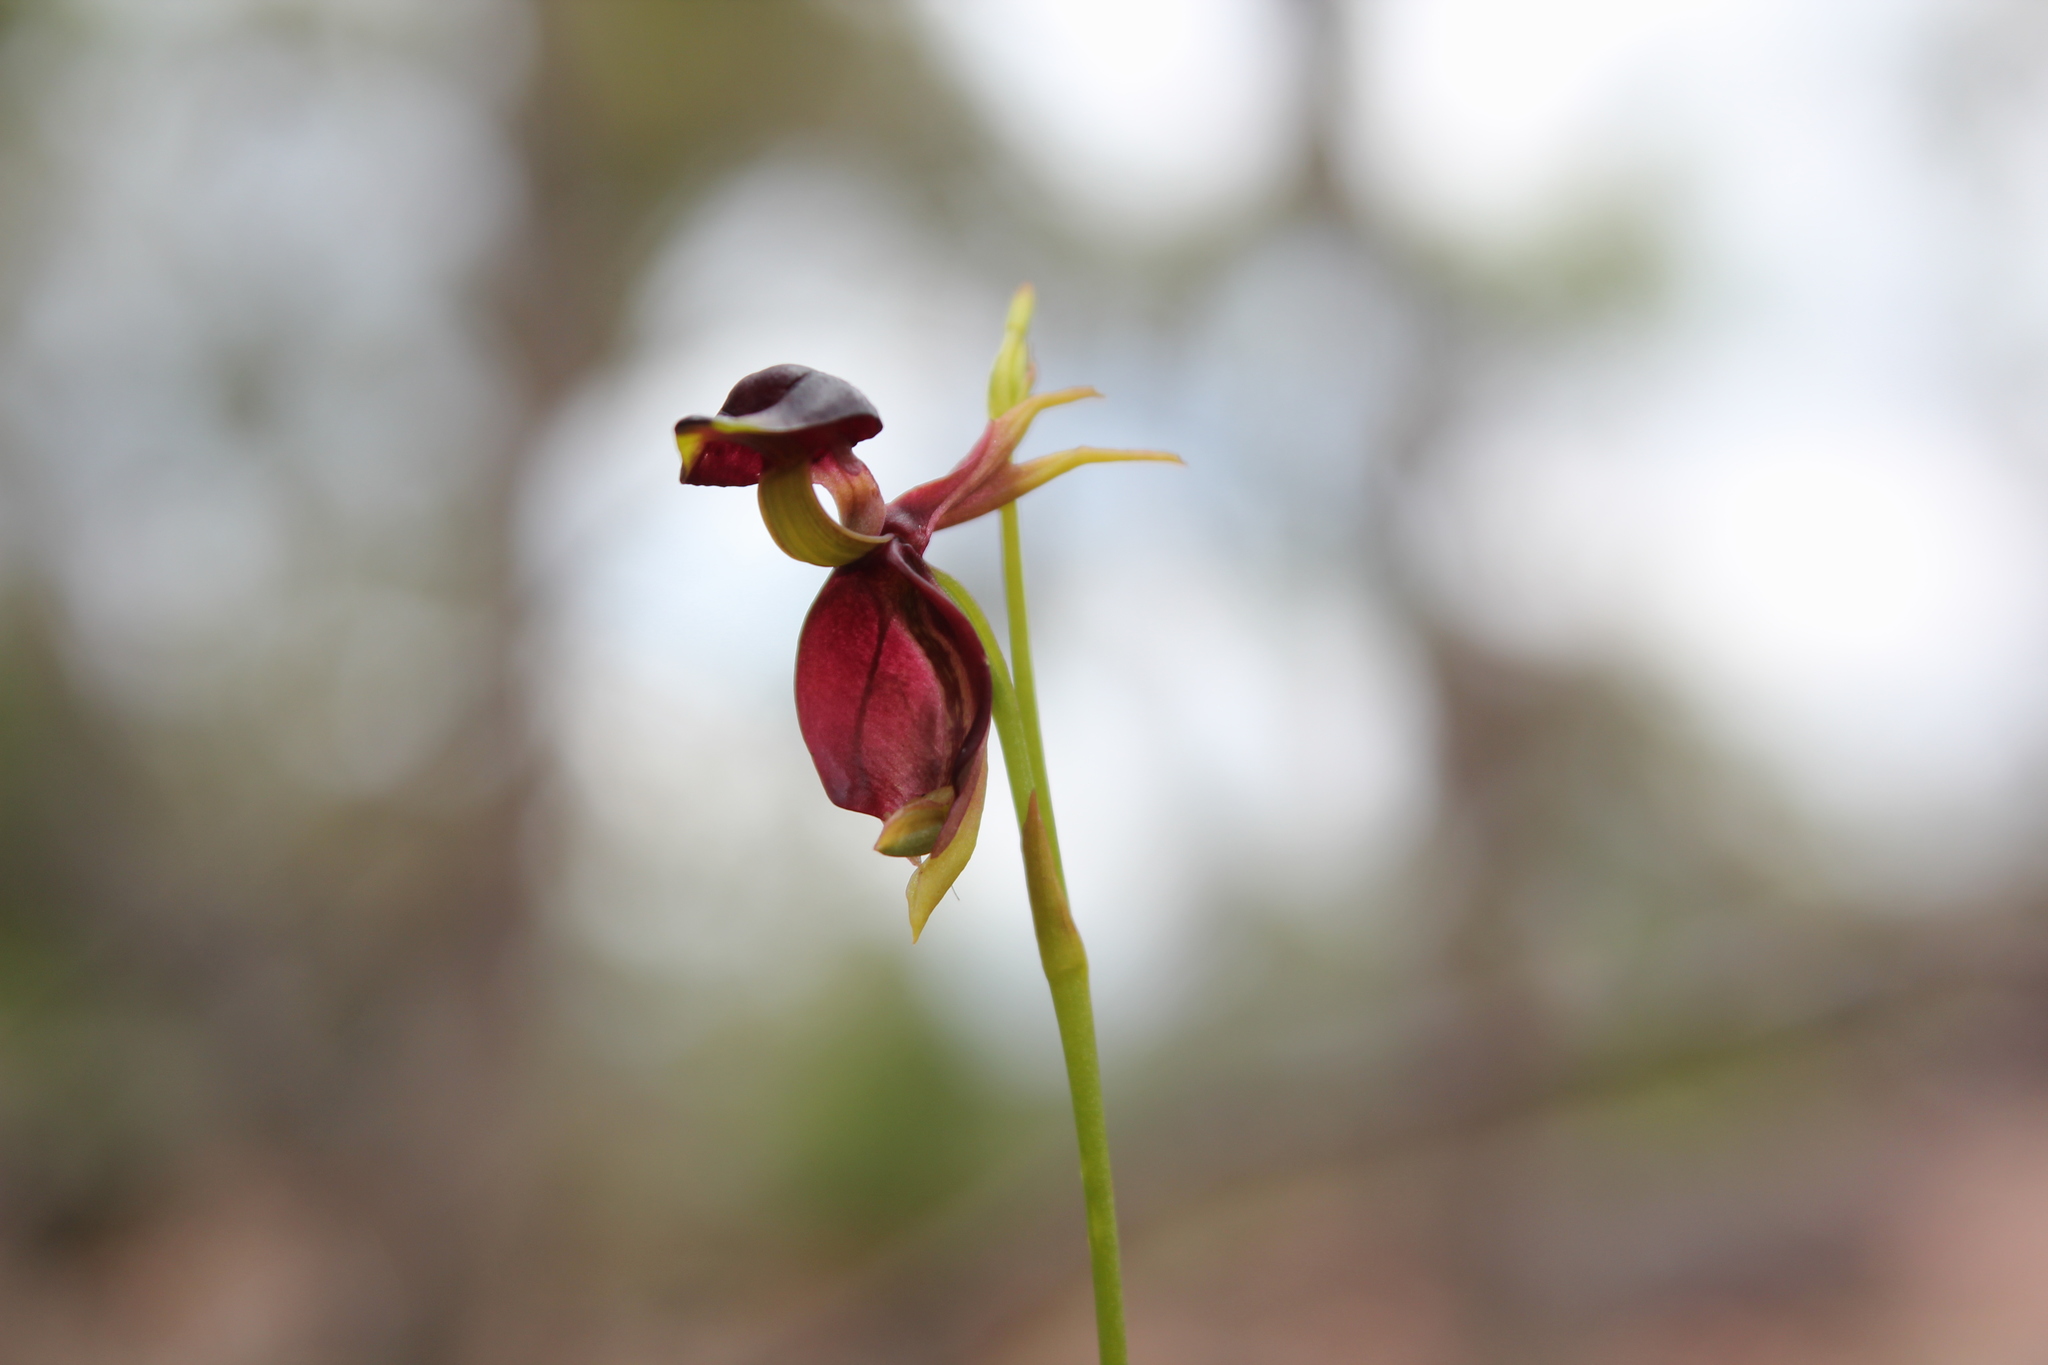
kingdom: Plantae
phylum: Tracheophyta
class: Liliopsida
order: Asparagales
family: Orchidaceae
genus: Caleana
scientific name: Caleana major
